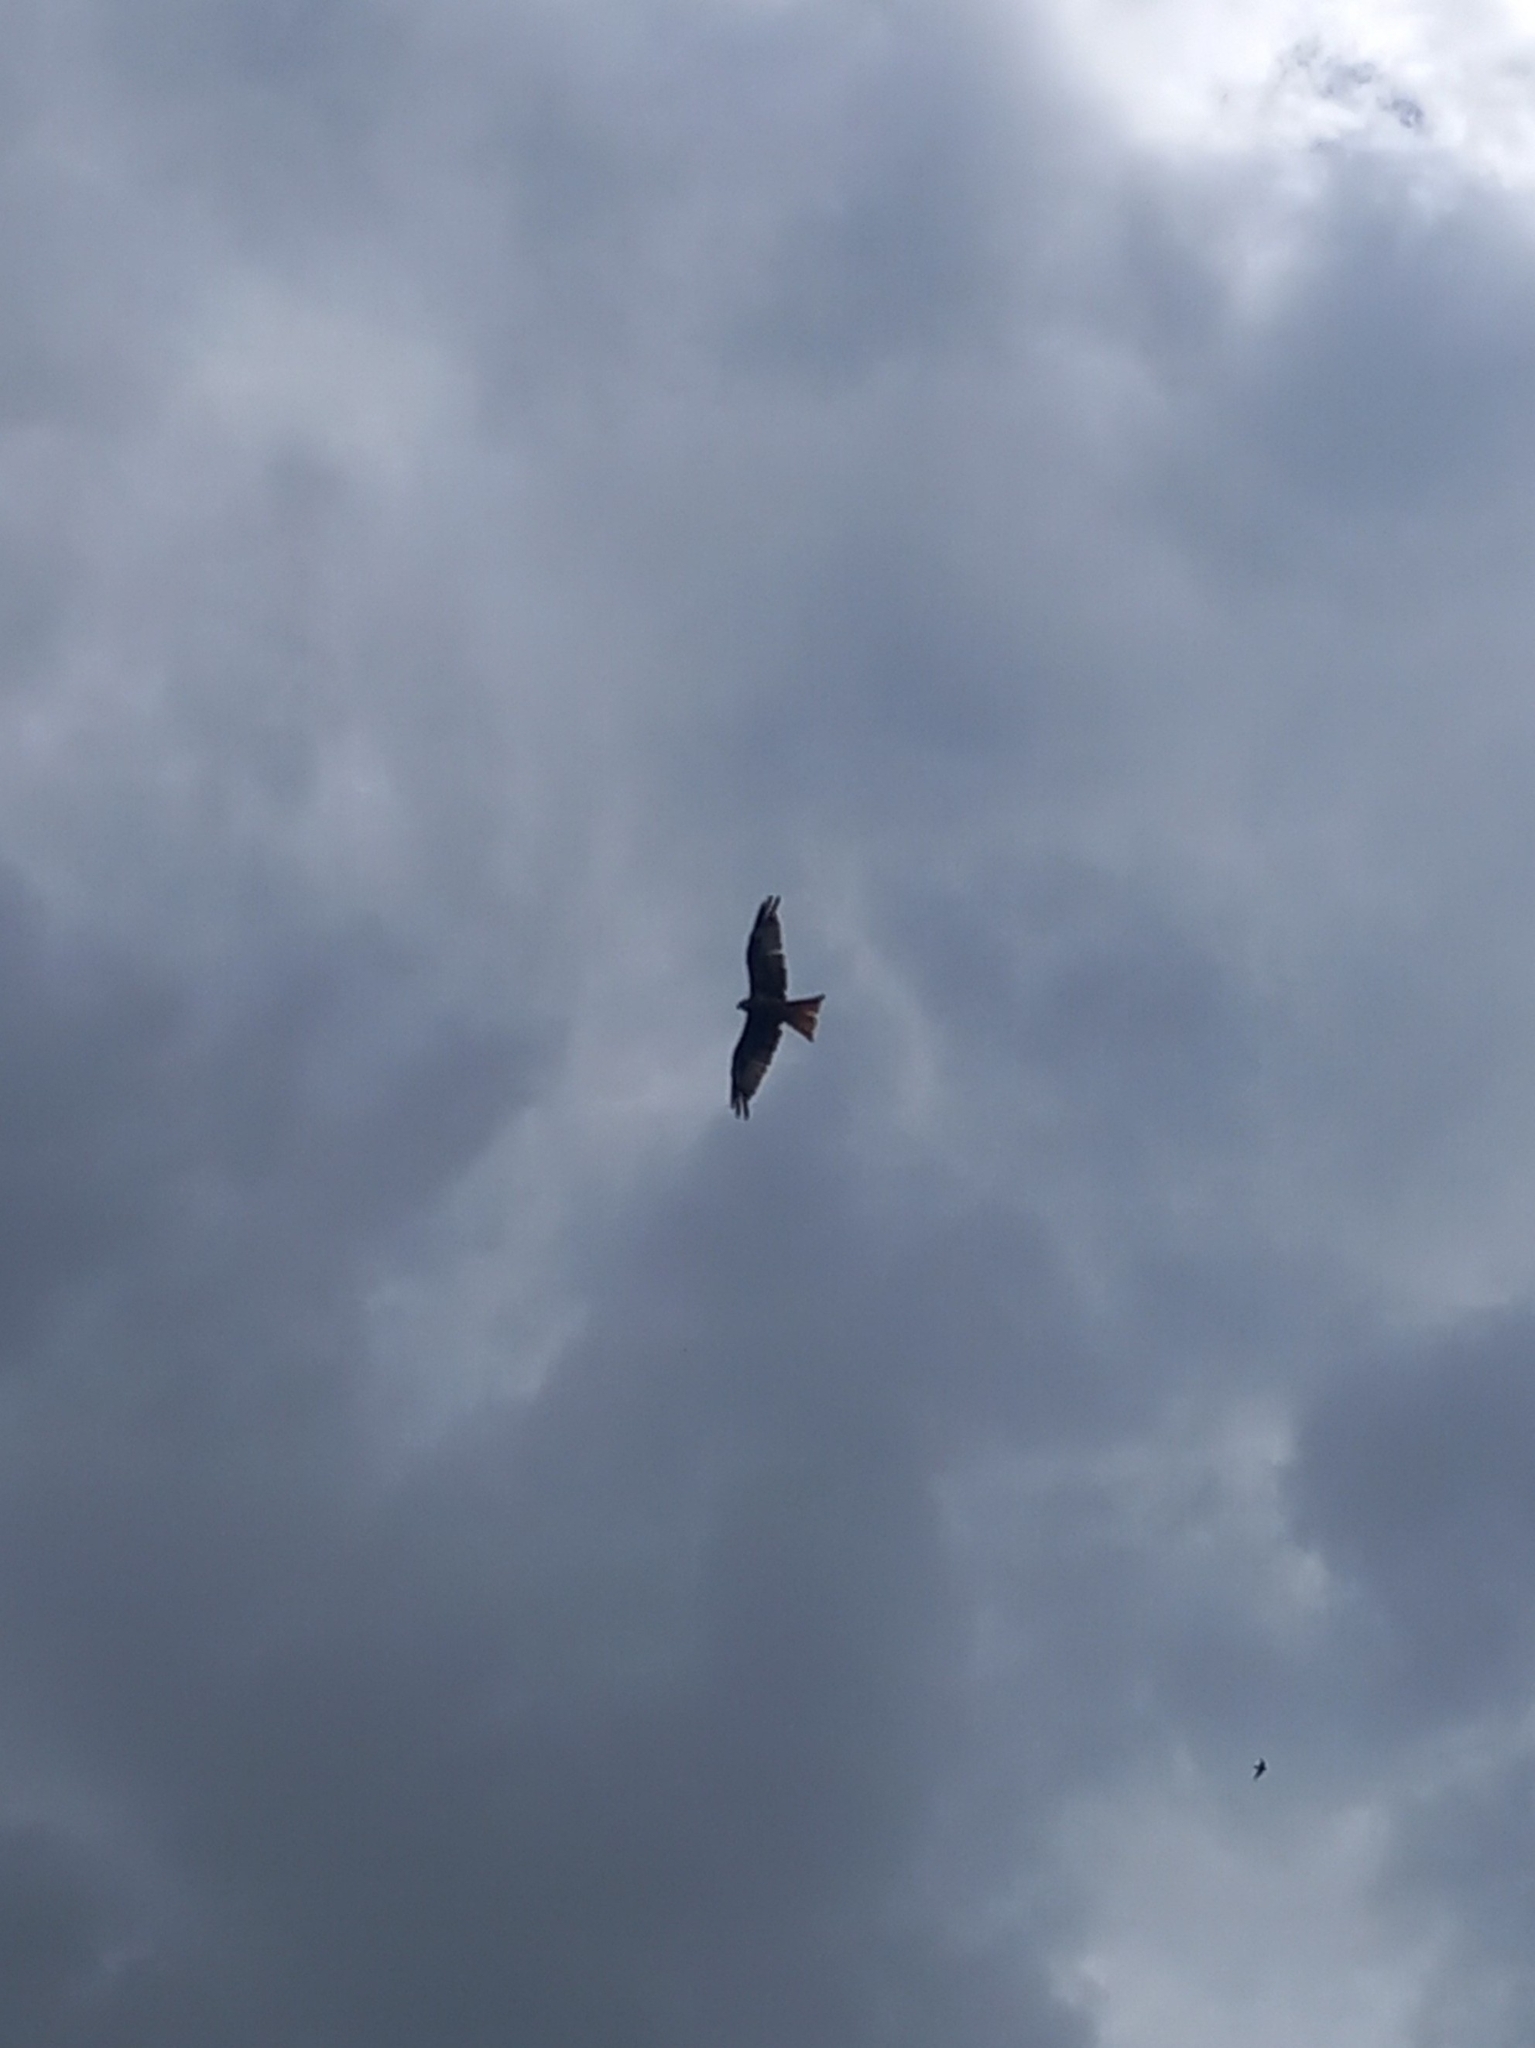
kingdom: Animalia
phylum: Chordata
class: Aves
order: Accipitriformes
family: Accipitridae
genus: Milvus
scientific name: Milvus milvus
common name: Red kite
